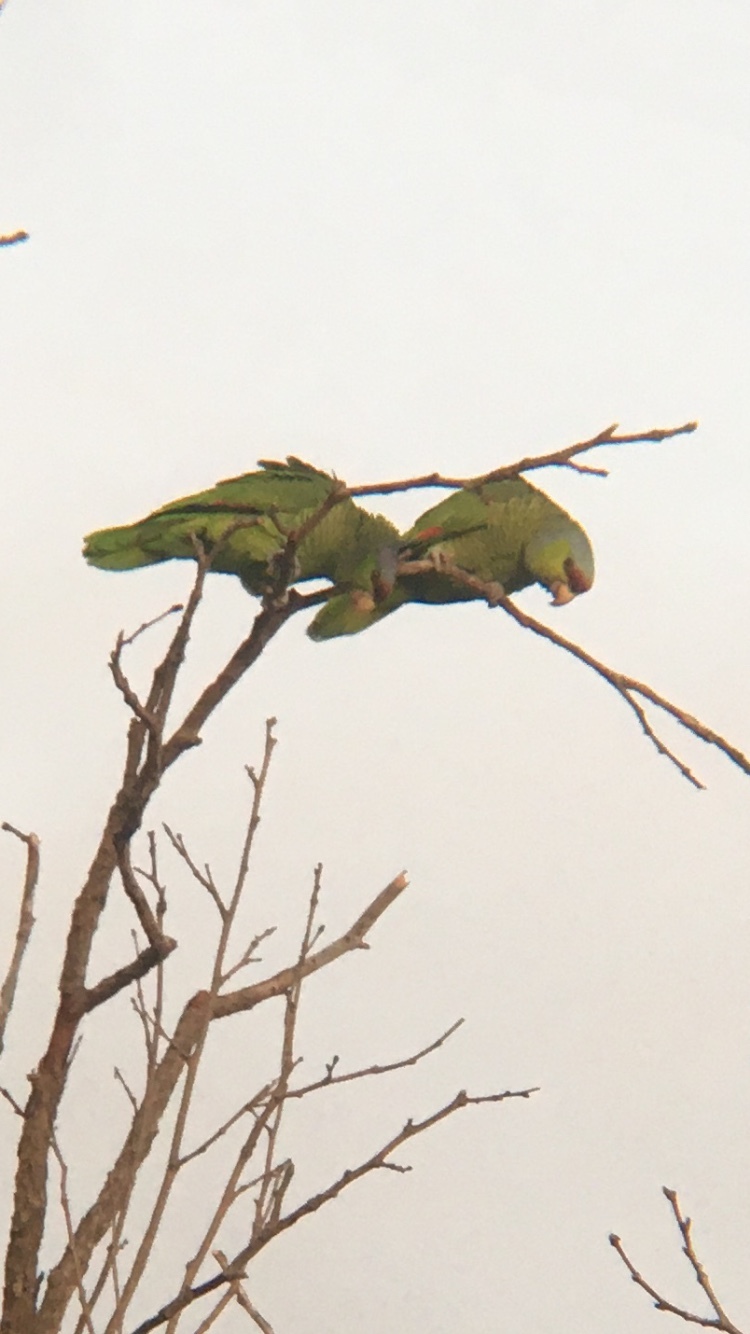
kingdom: Animalia
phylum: Chordata
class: Aves
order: Psittaciformes
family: Psittacidae
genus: Amazona
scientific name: Amazona finschi
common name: Lilac-crowned amazon
